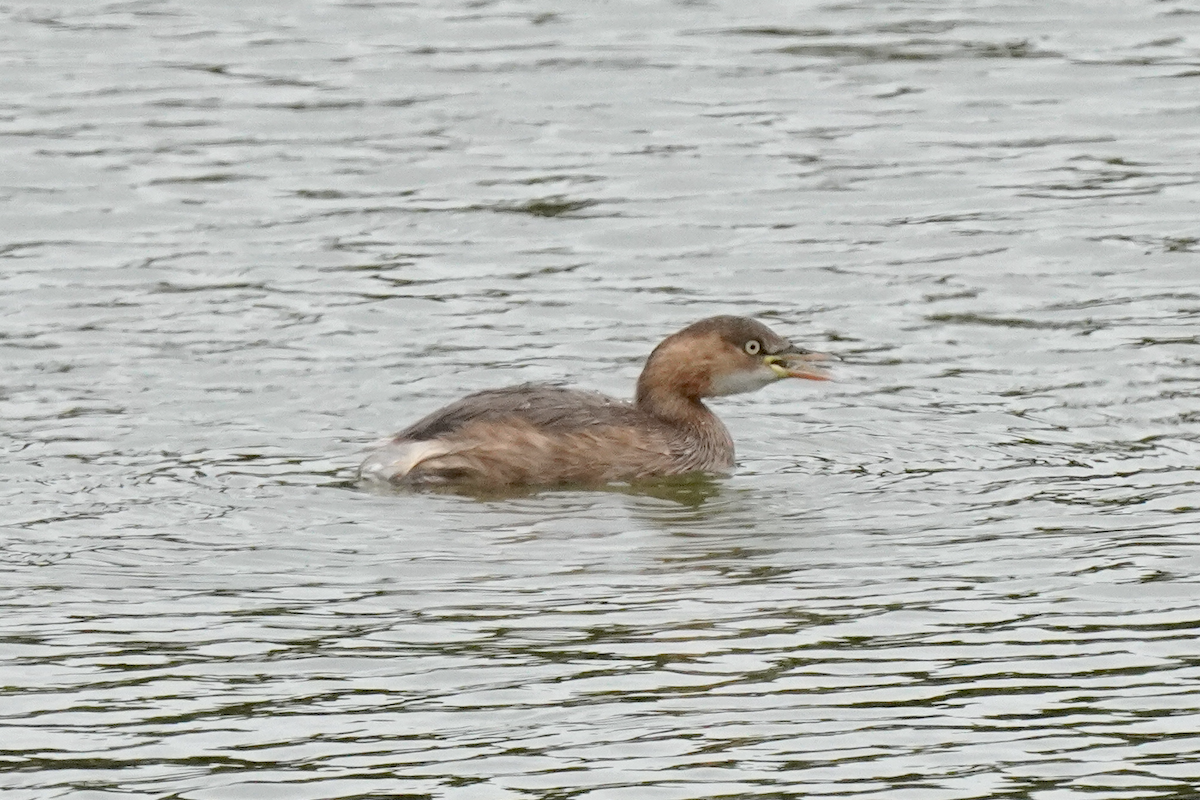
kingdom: Animalia
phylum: Chordata
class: Aves
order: Podicipediformes
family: Podicipedidae
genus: Tachybaptus
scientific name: Tachybaptus ruficollis
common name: Little grebe
